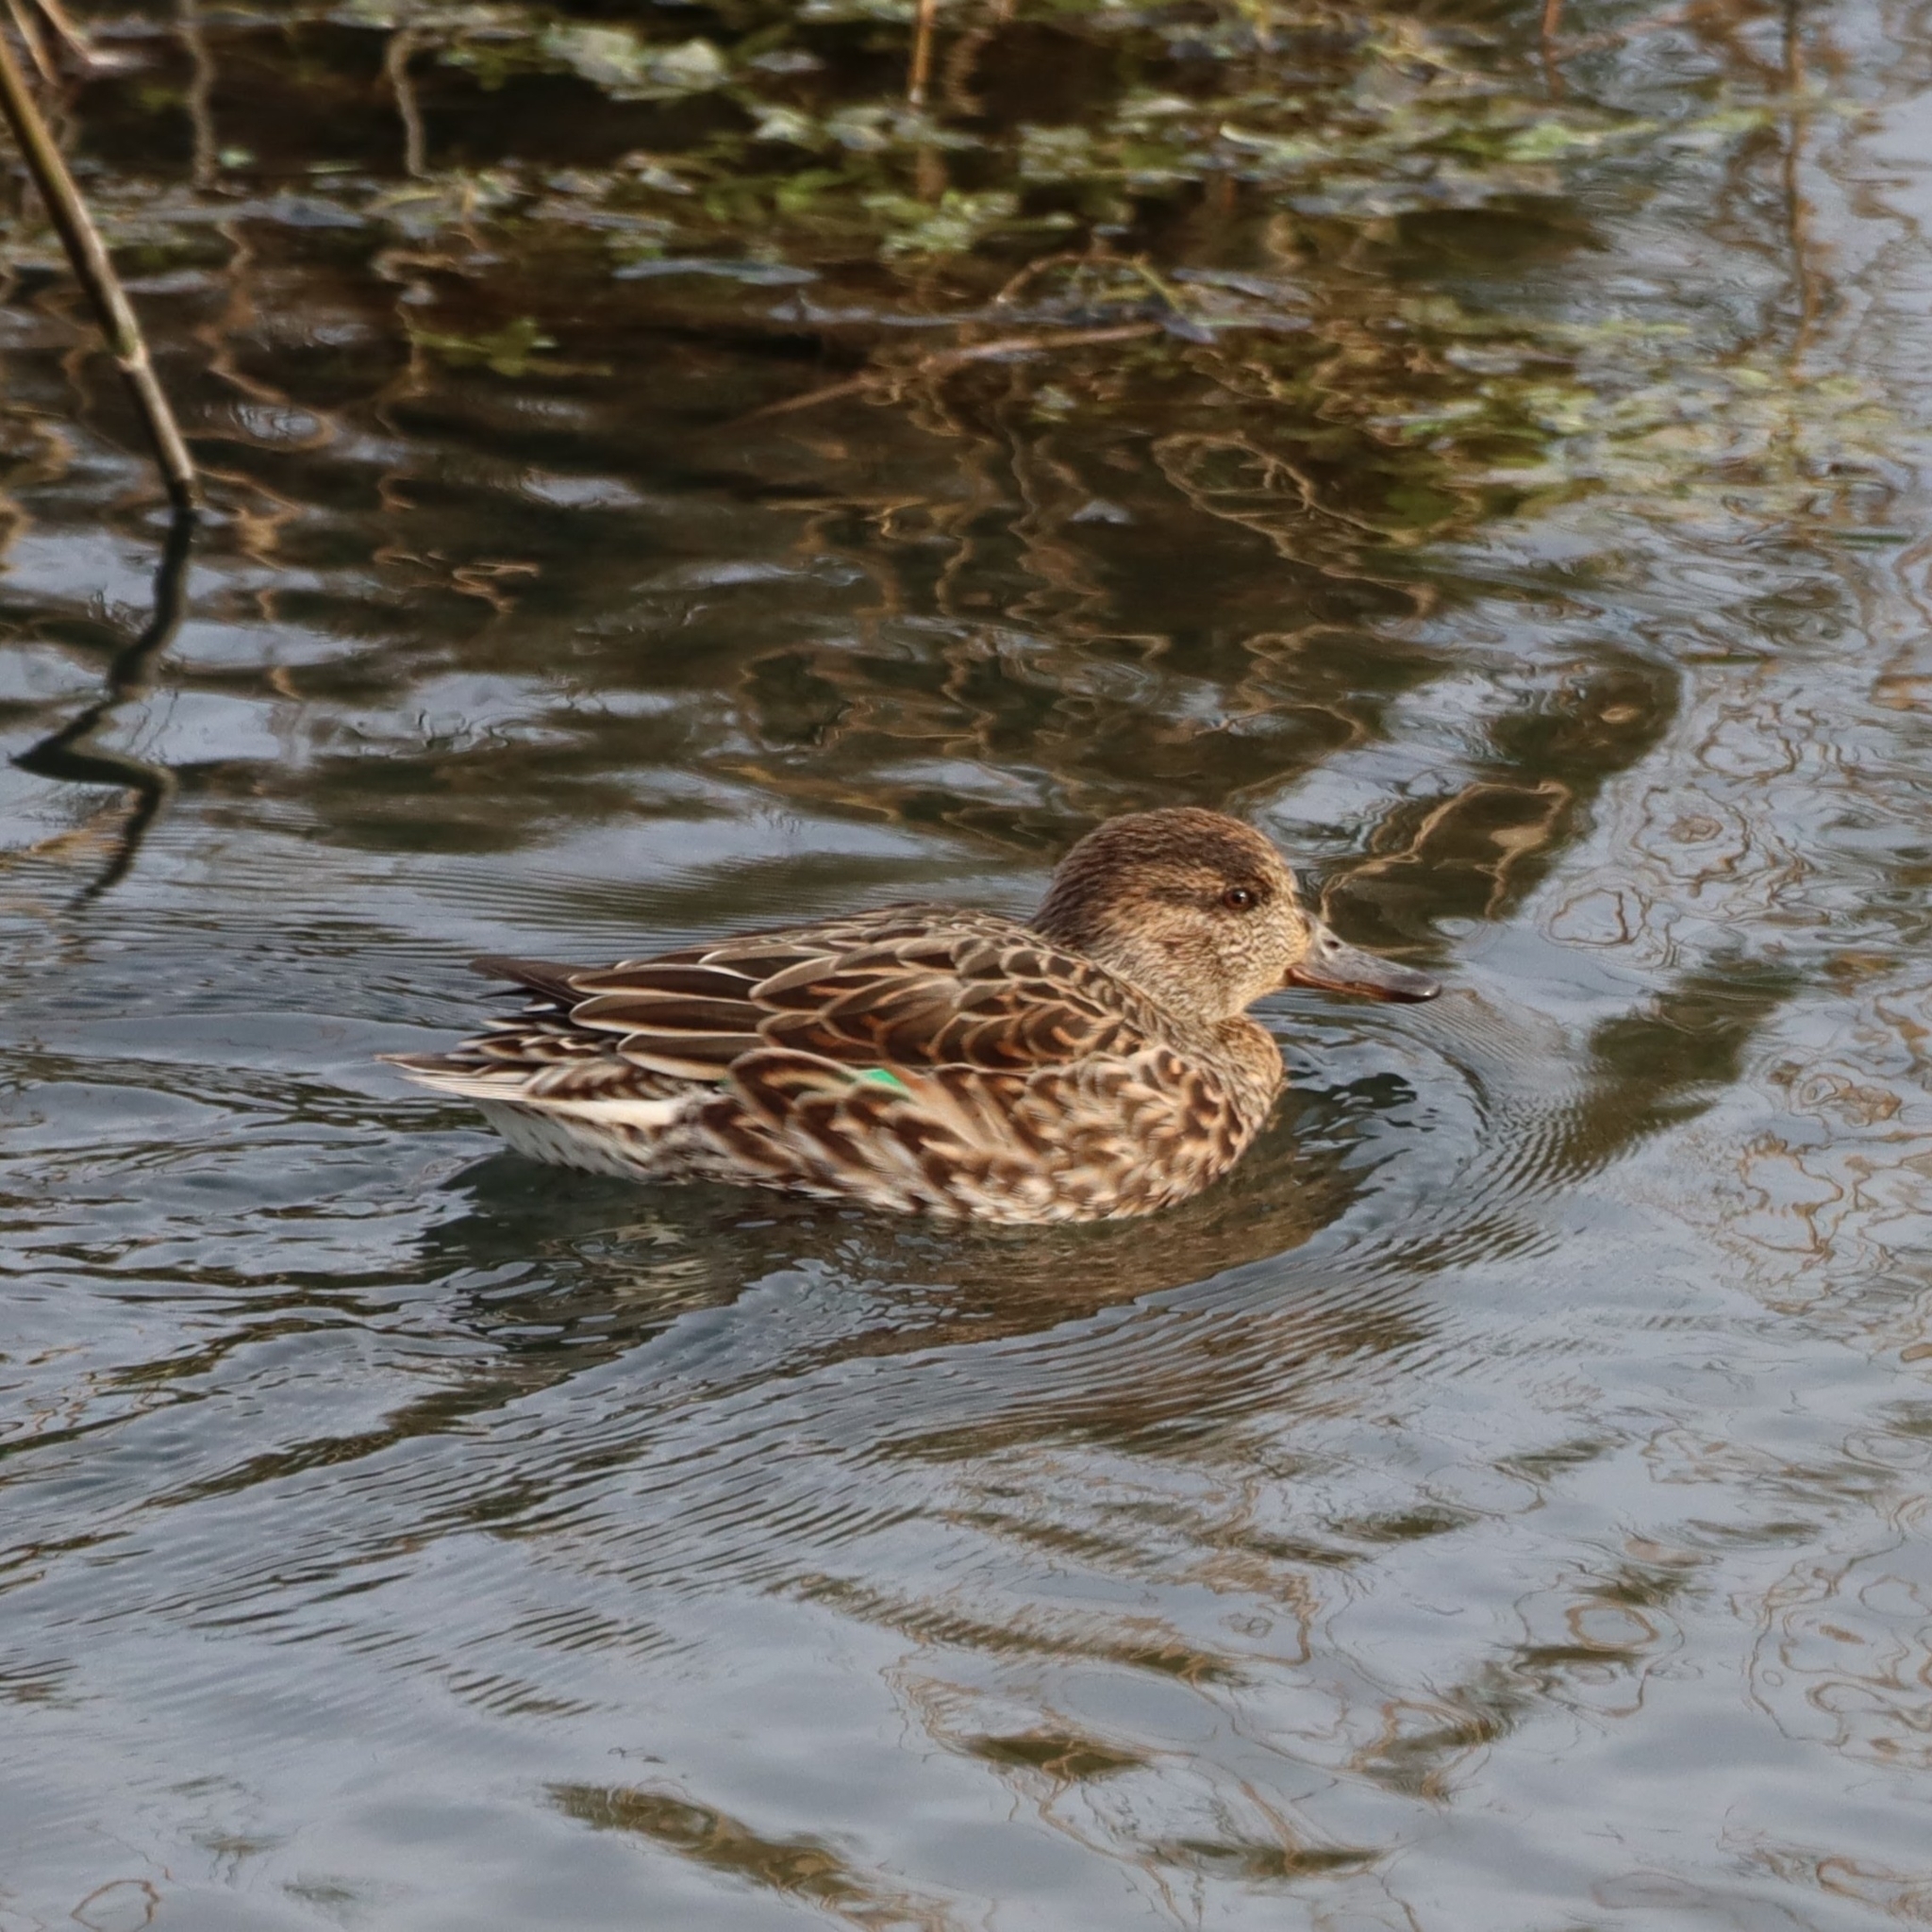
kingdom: Animalia
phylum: Chordata
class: Aves
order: Anseriformes
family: Anatidae
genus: Anas
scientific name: Anas crecca
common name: Eurasian teal
